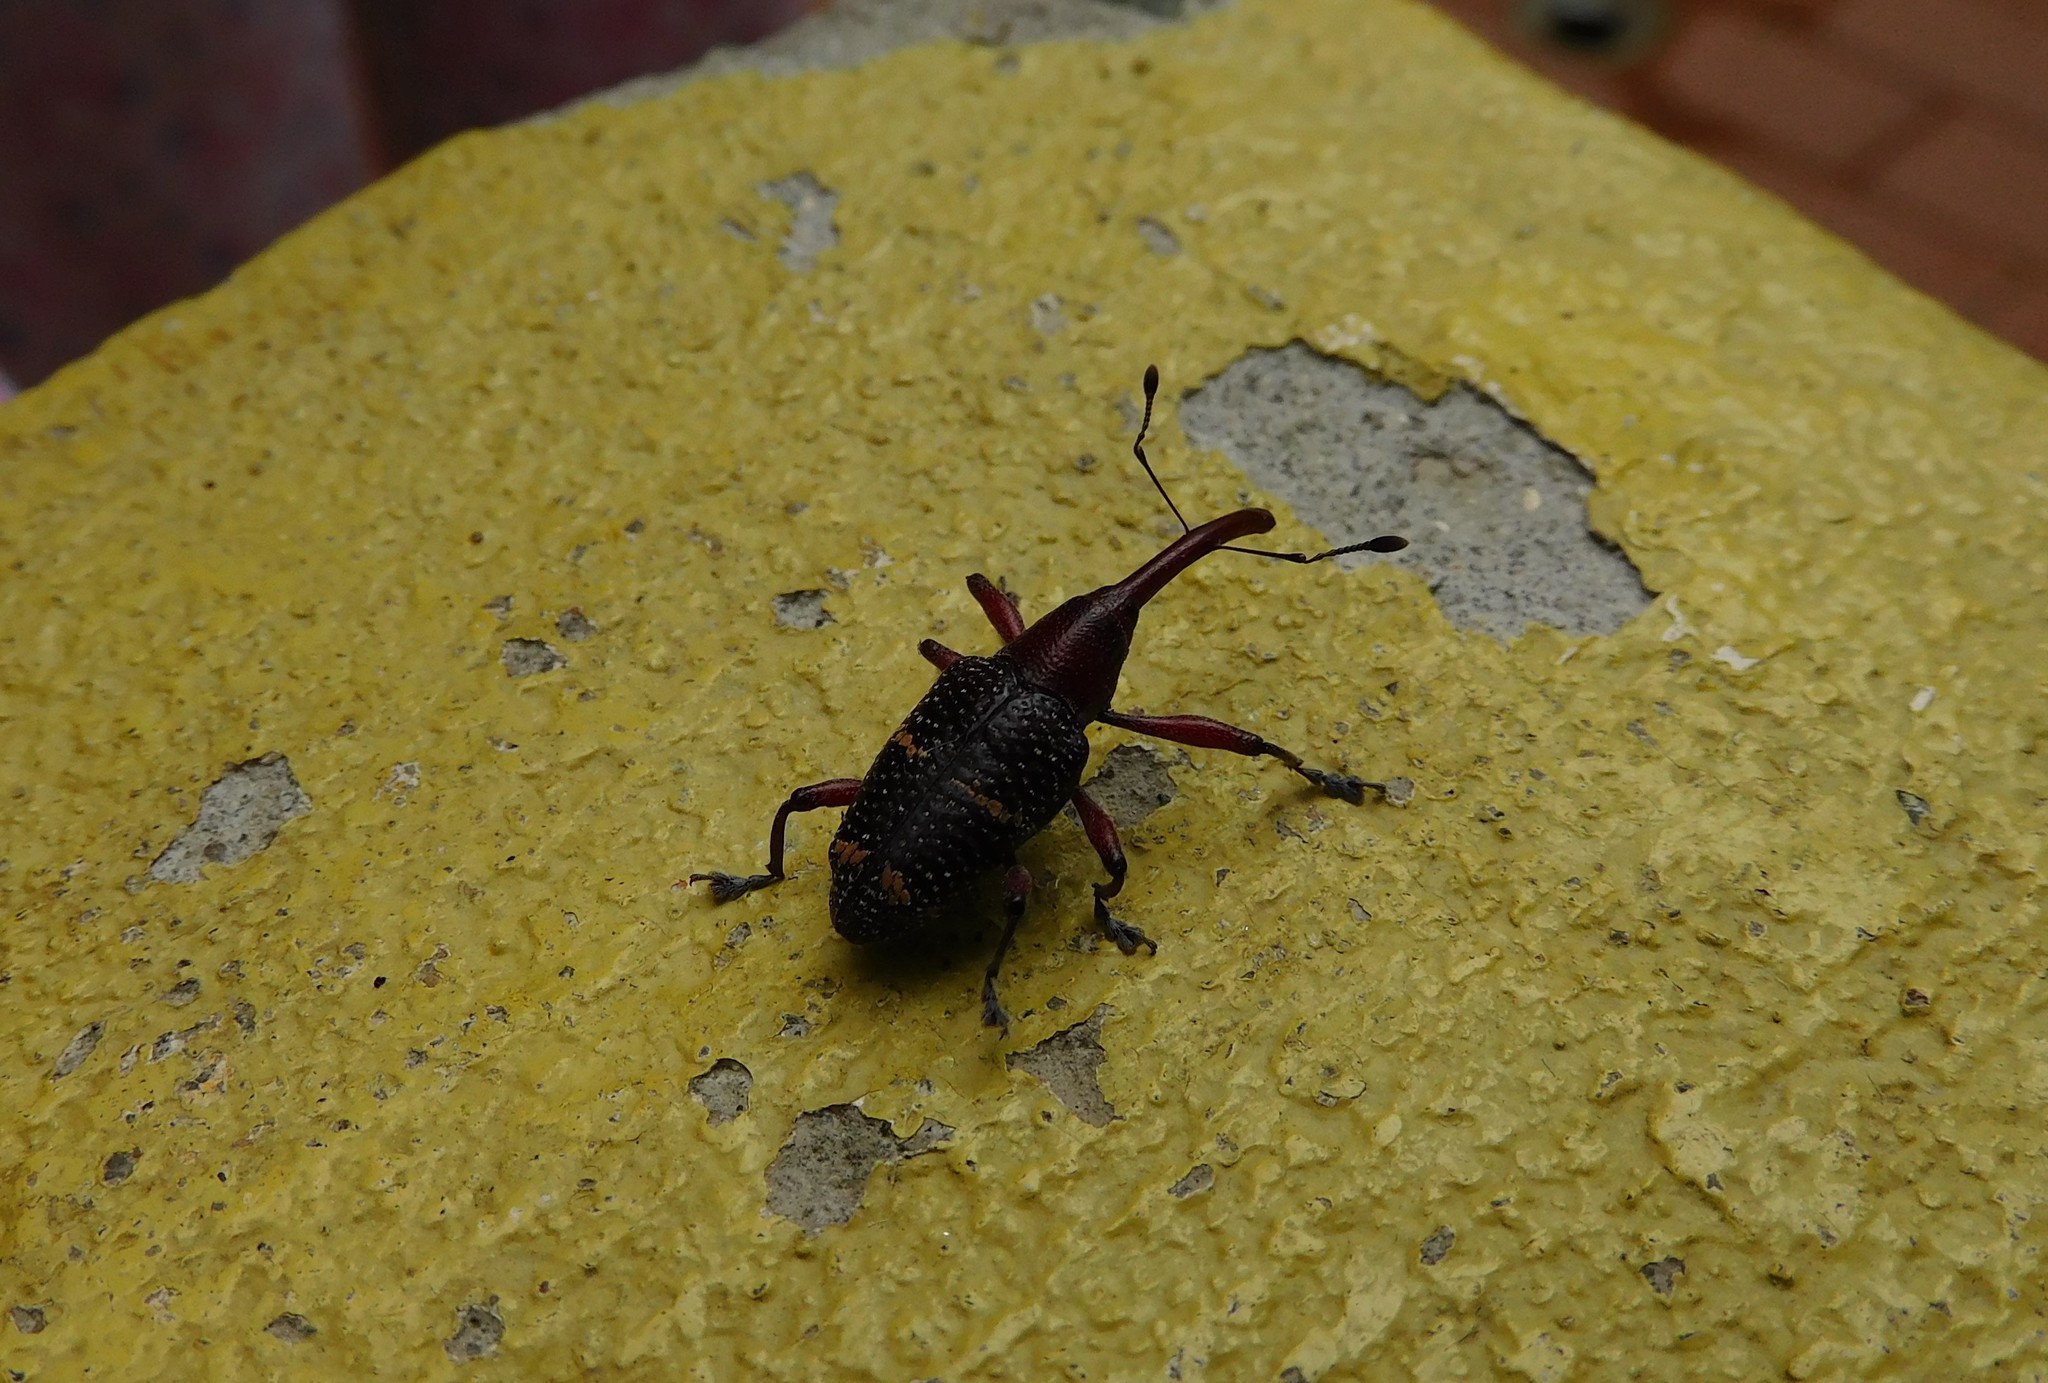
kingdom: Animalia
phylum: Arthropoda
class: Insecta
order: Coleoptera
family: Curculionidae
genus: Heilipus
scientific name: Heilipus lauri
